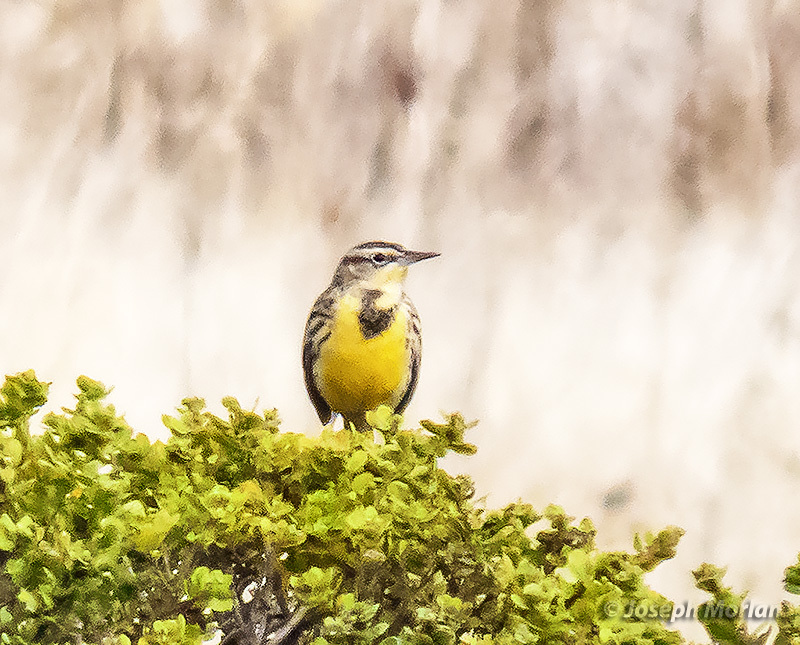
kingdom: Animalia
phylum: Chordata
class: Aves
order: Passeriformes
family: Icteridae
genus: Sturnella
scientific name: Sturnella neglecta
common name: Western meadowlark
